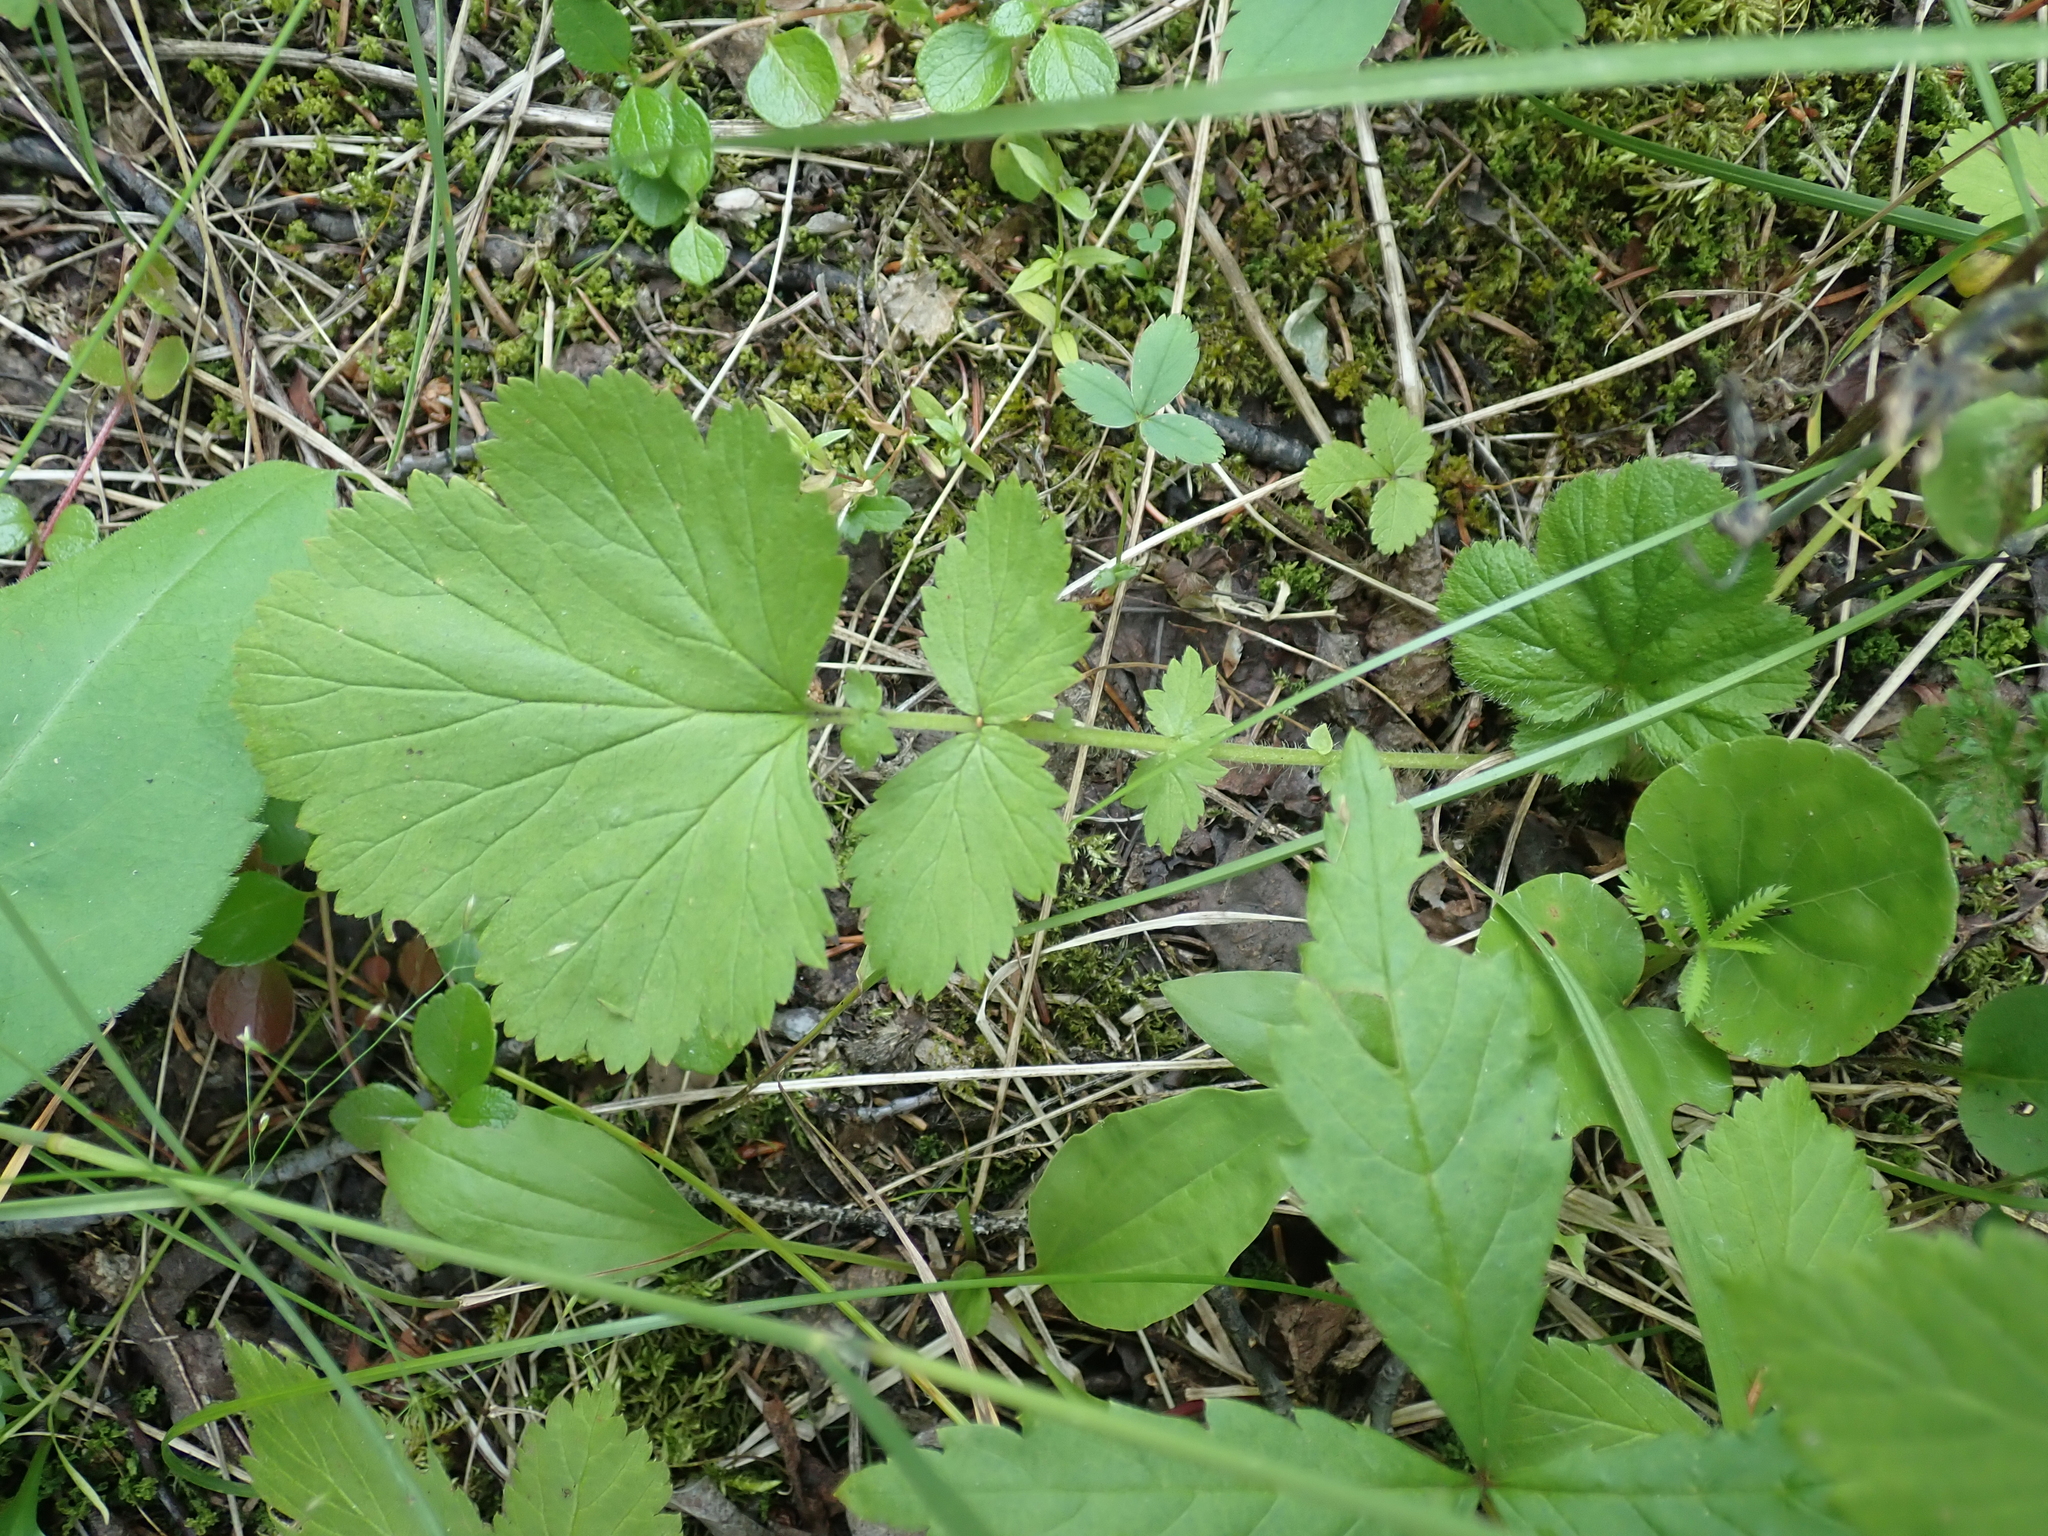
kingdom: Plantae
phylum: Tracheophyta
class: Magnoliopsida
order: Rosales
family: Rosaceae
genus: Geum
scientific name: Geum macrophyllum
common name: Large-leaved avens
